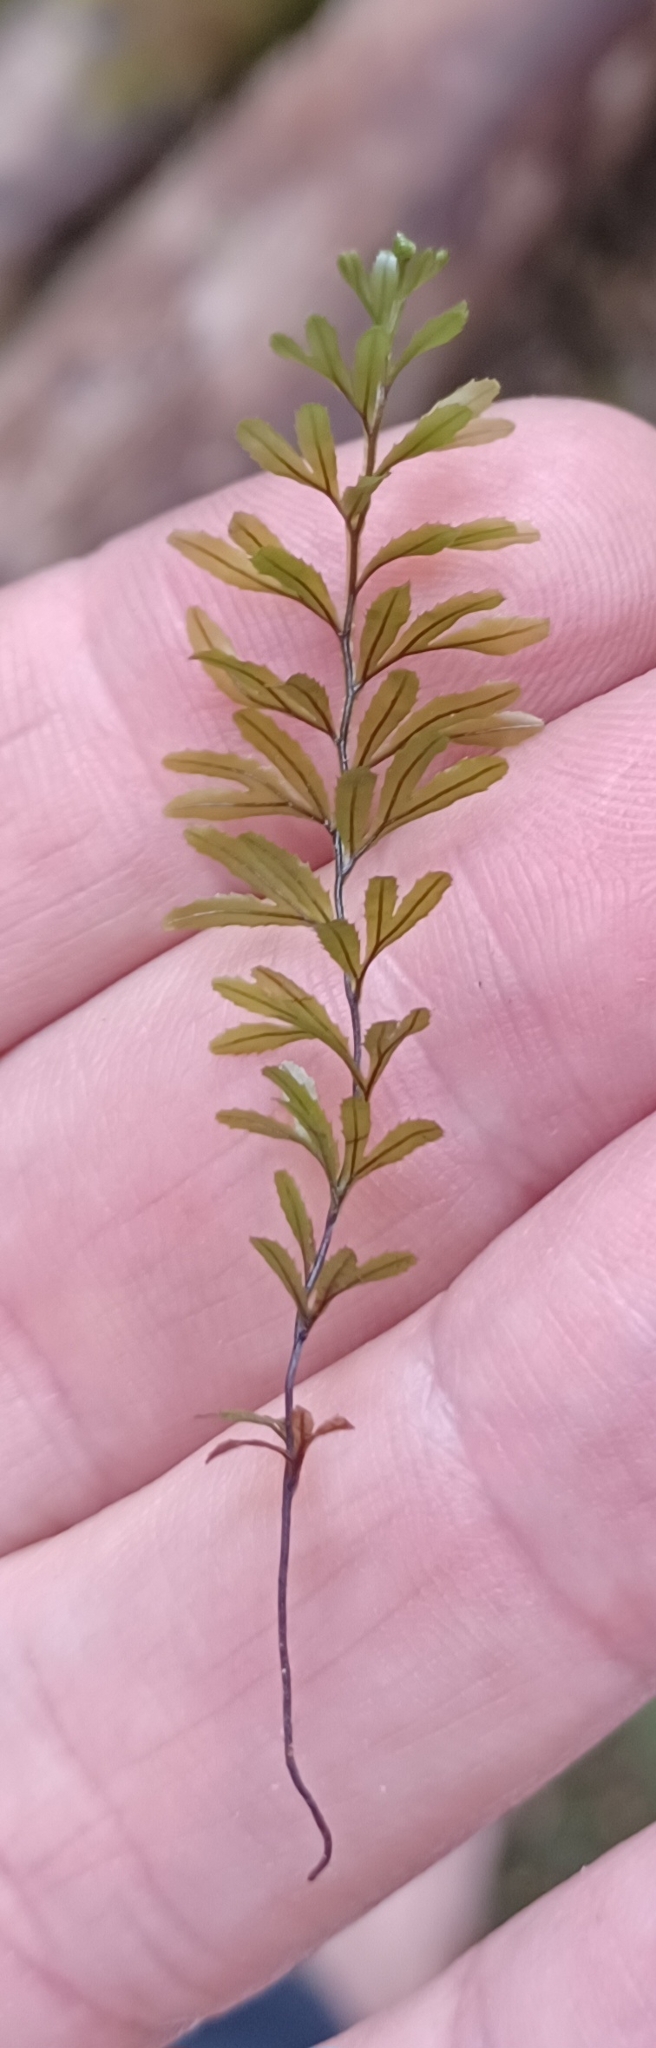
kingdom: Plantae
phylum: Tracheophyta
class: Polypodiopsida
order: Hymenophyllales
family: Hymenophyllaceae
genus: Hymenophyllum
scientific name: Hymenophyllum peltatum
